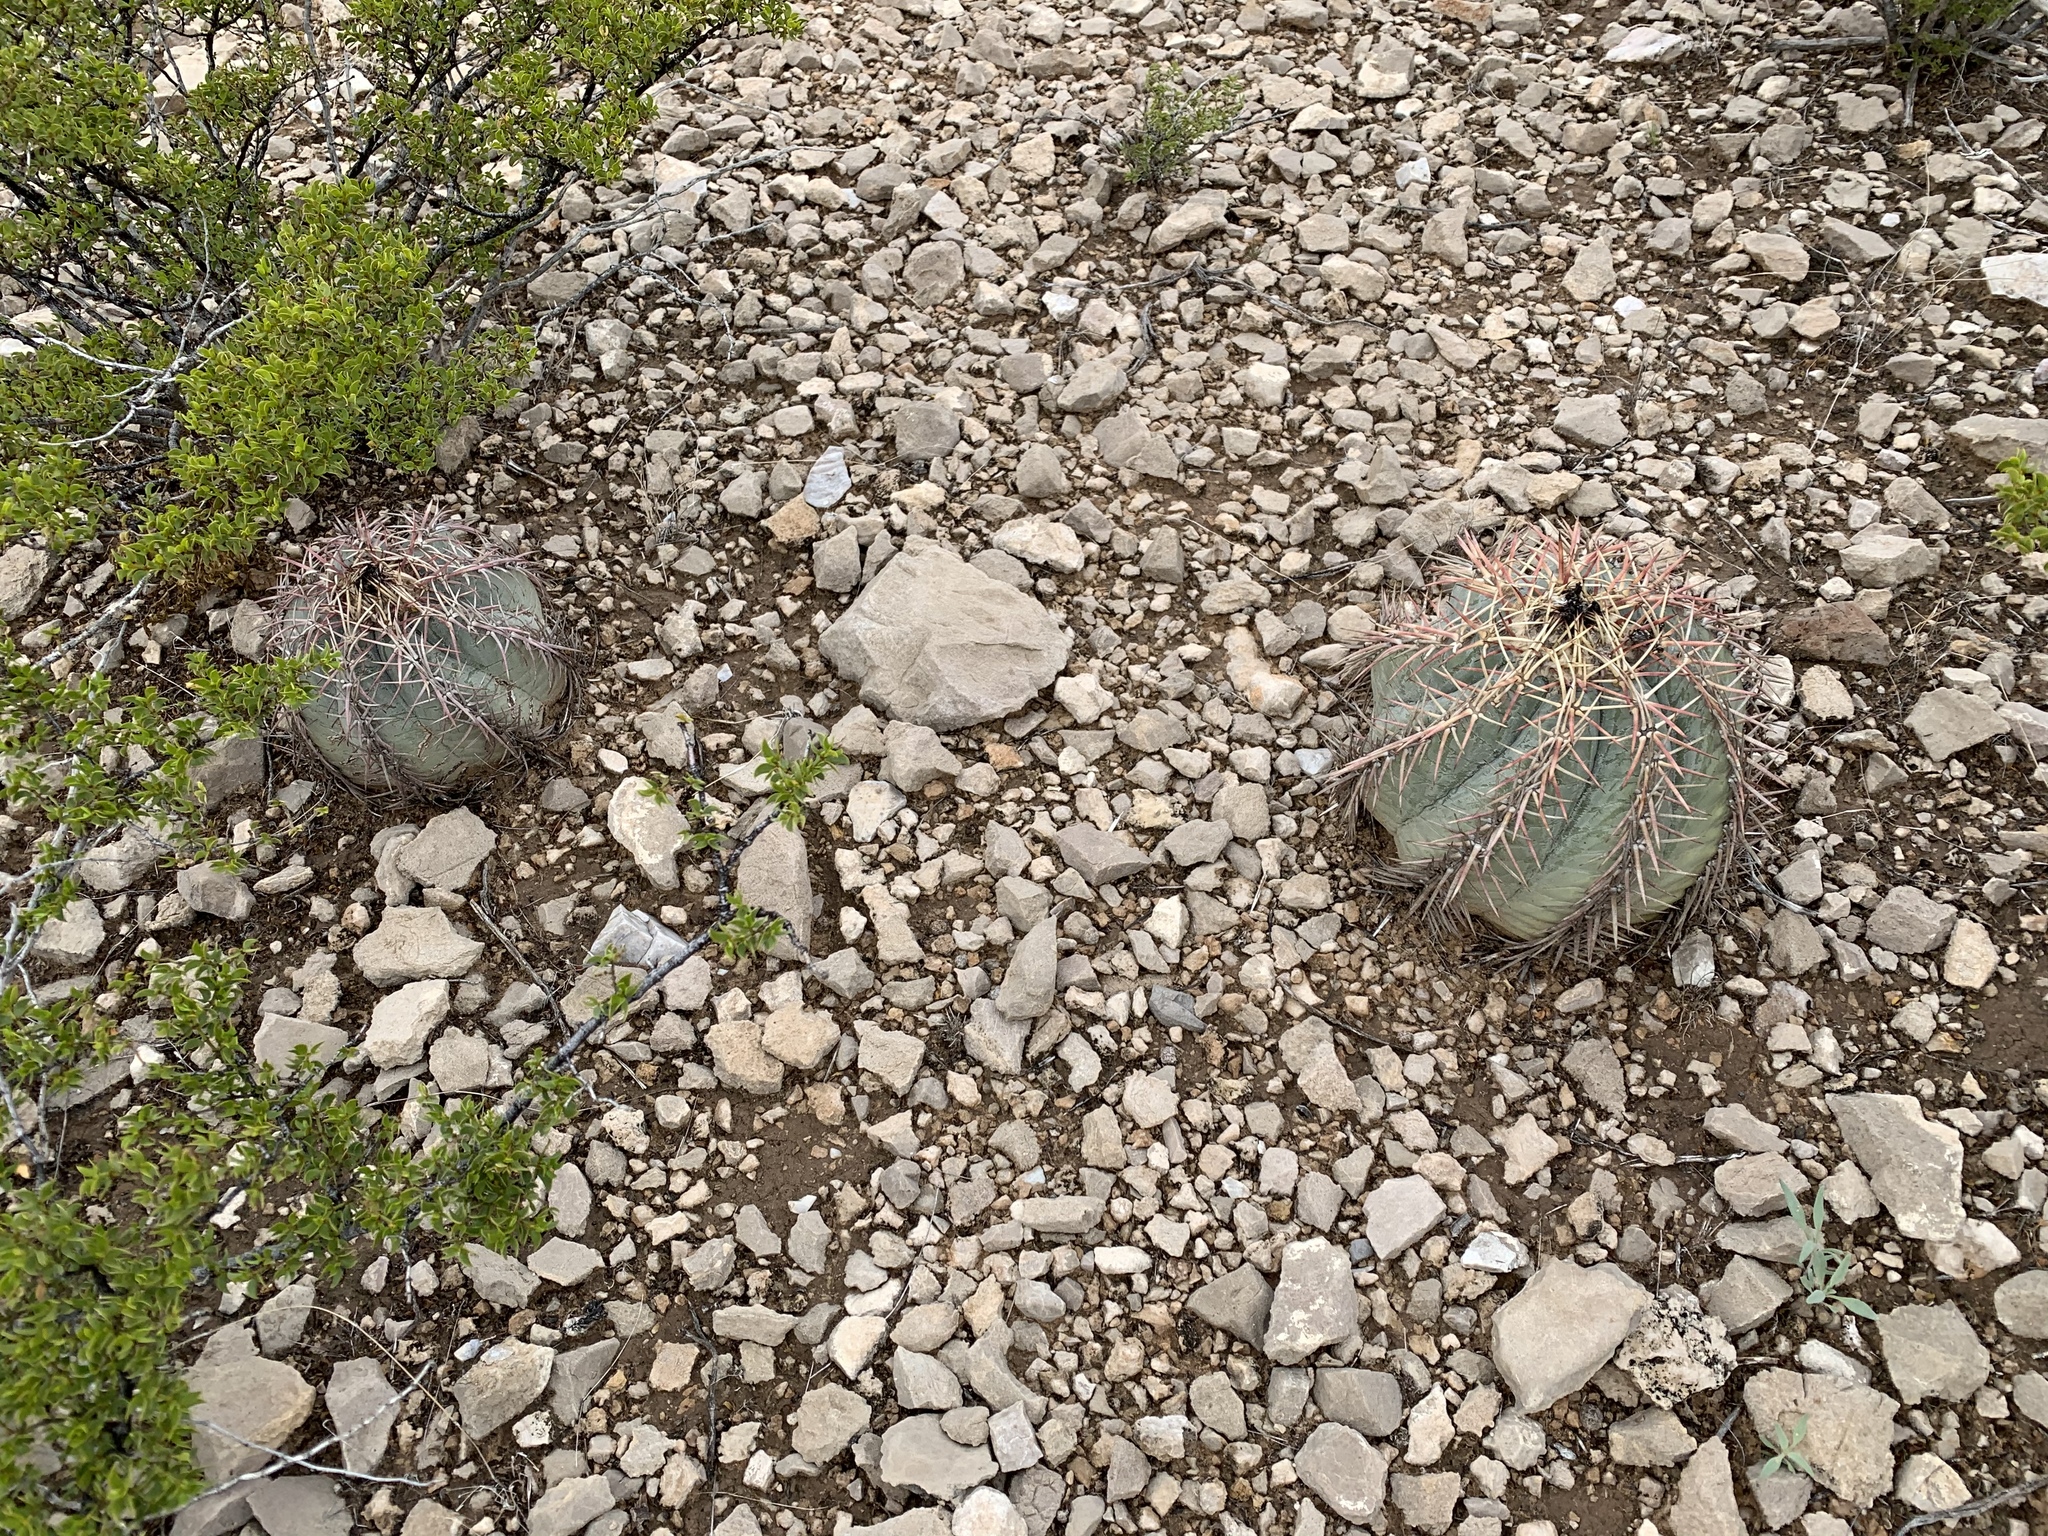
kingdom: Plantae
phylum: Tracheophyta
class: Magnoliopsida
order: Caryophyllales
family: Cactaceae
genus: Echinocactus
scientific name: Echinocactus horizonthalonius
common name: Devilshead
